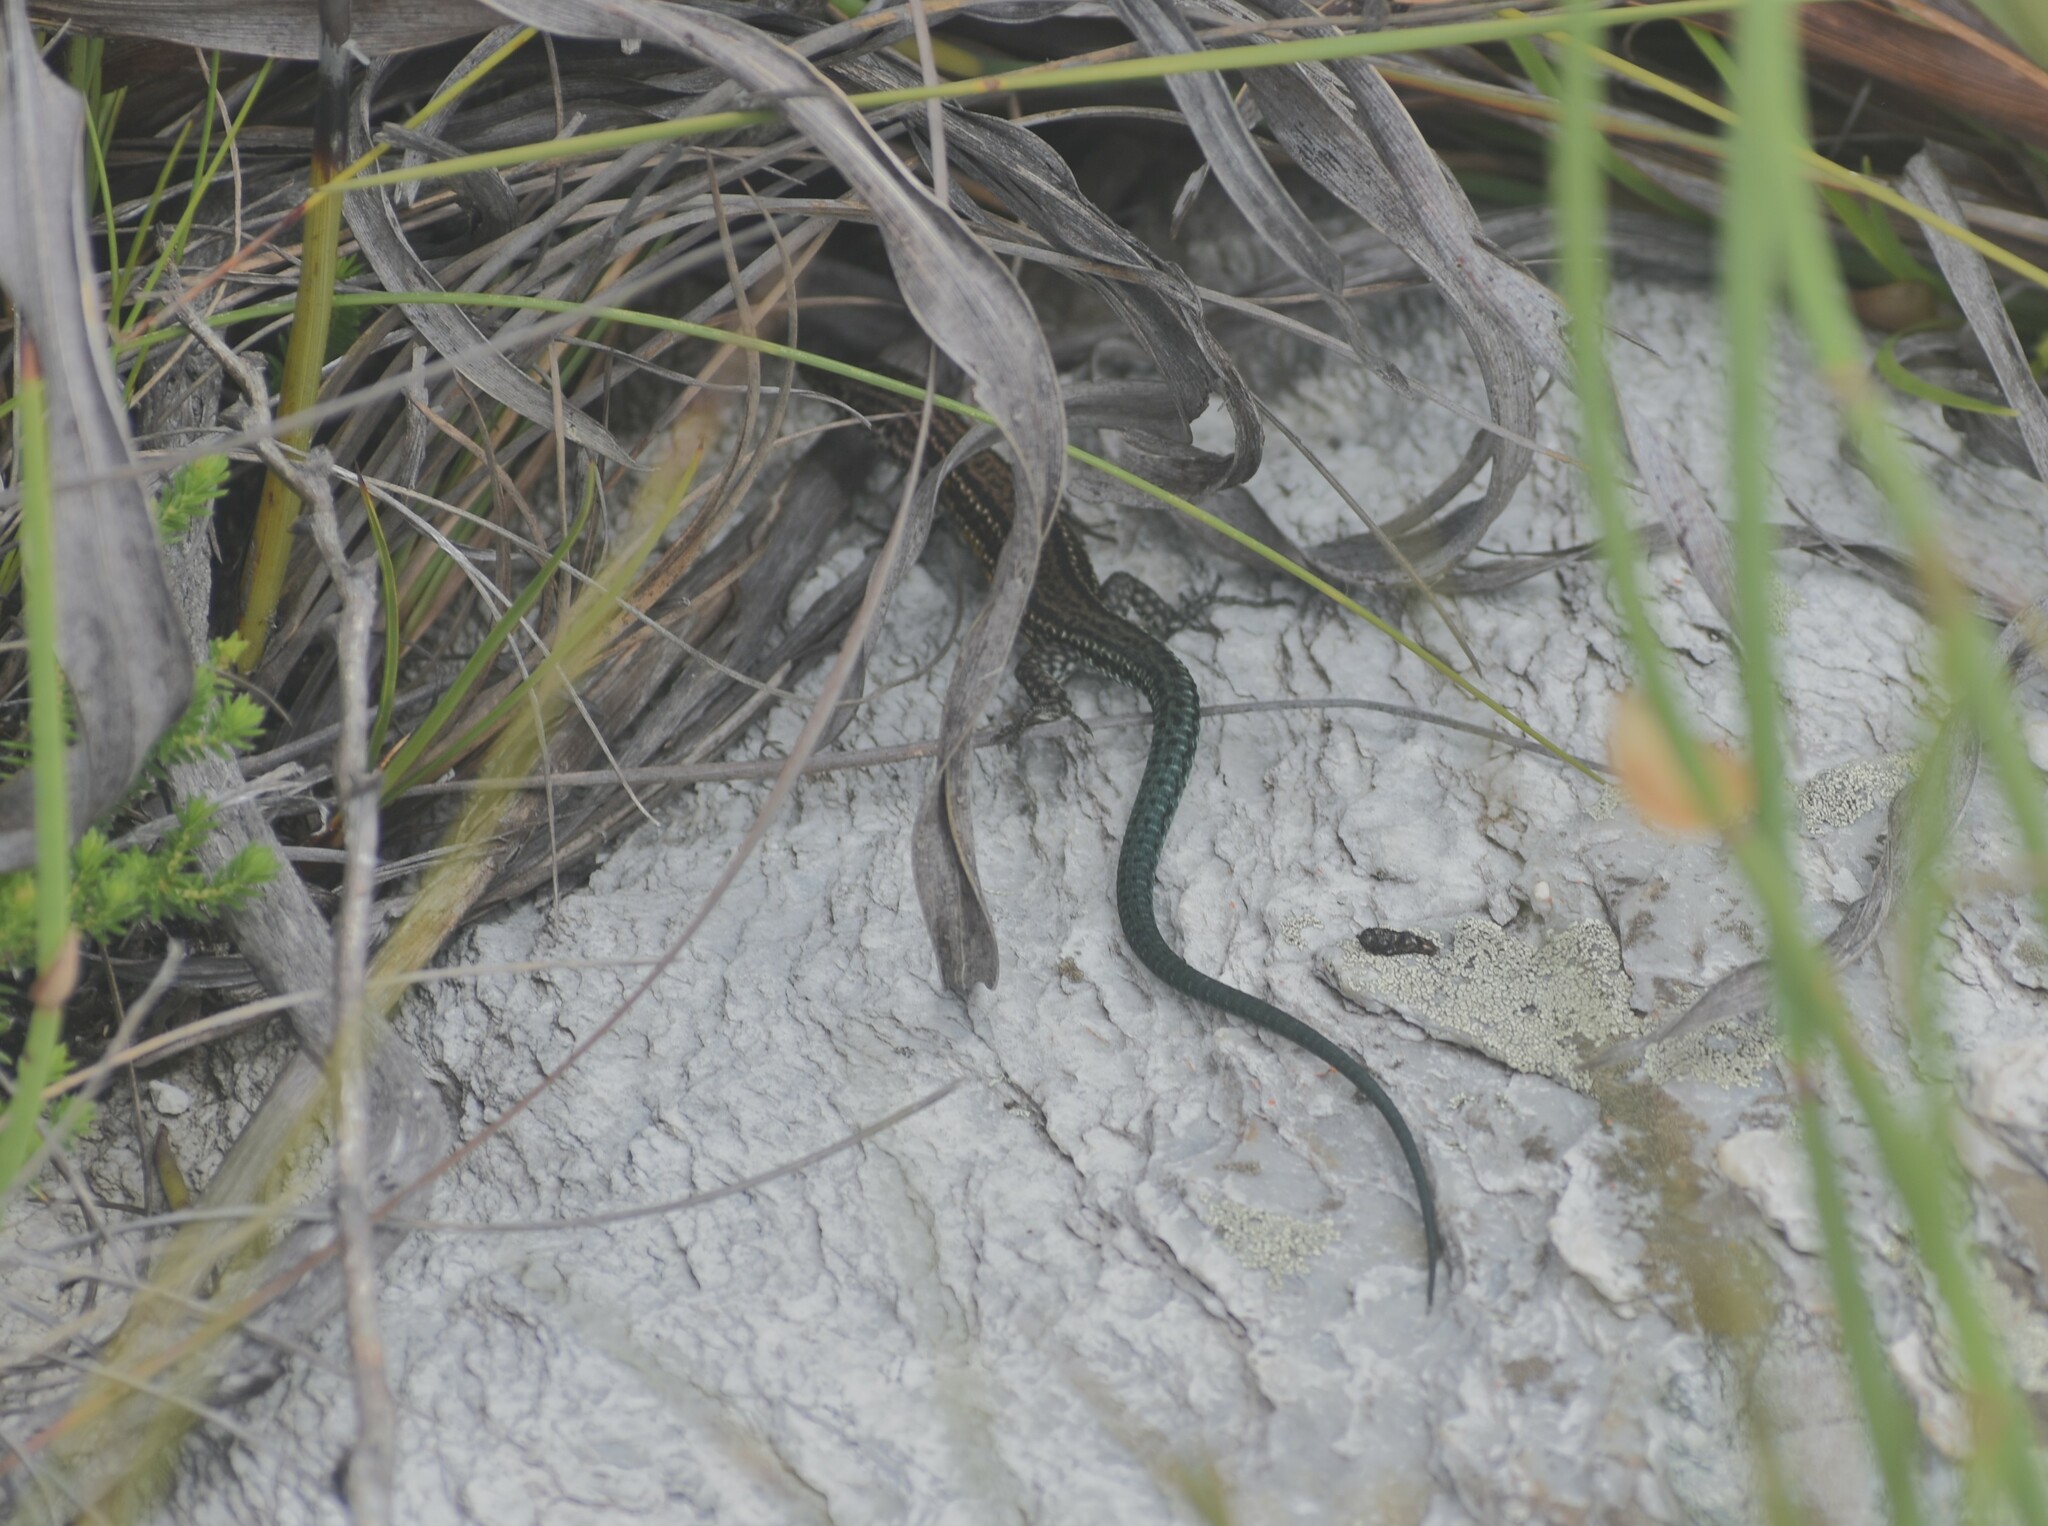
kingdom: Animalia
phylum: Chordata
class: Squamata
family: Lacertidae
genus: Tropidosaura
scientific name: Tropidosaura gularis
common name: Cape mountain lizard
